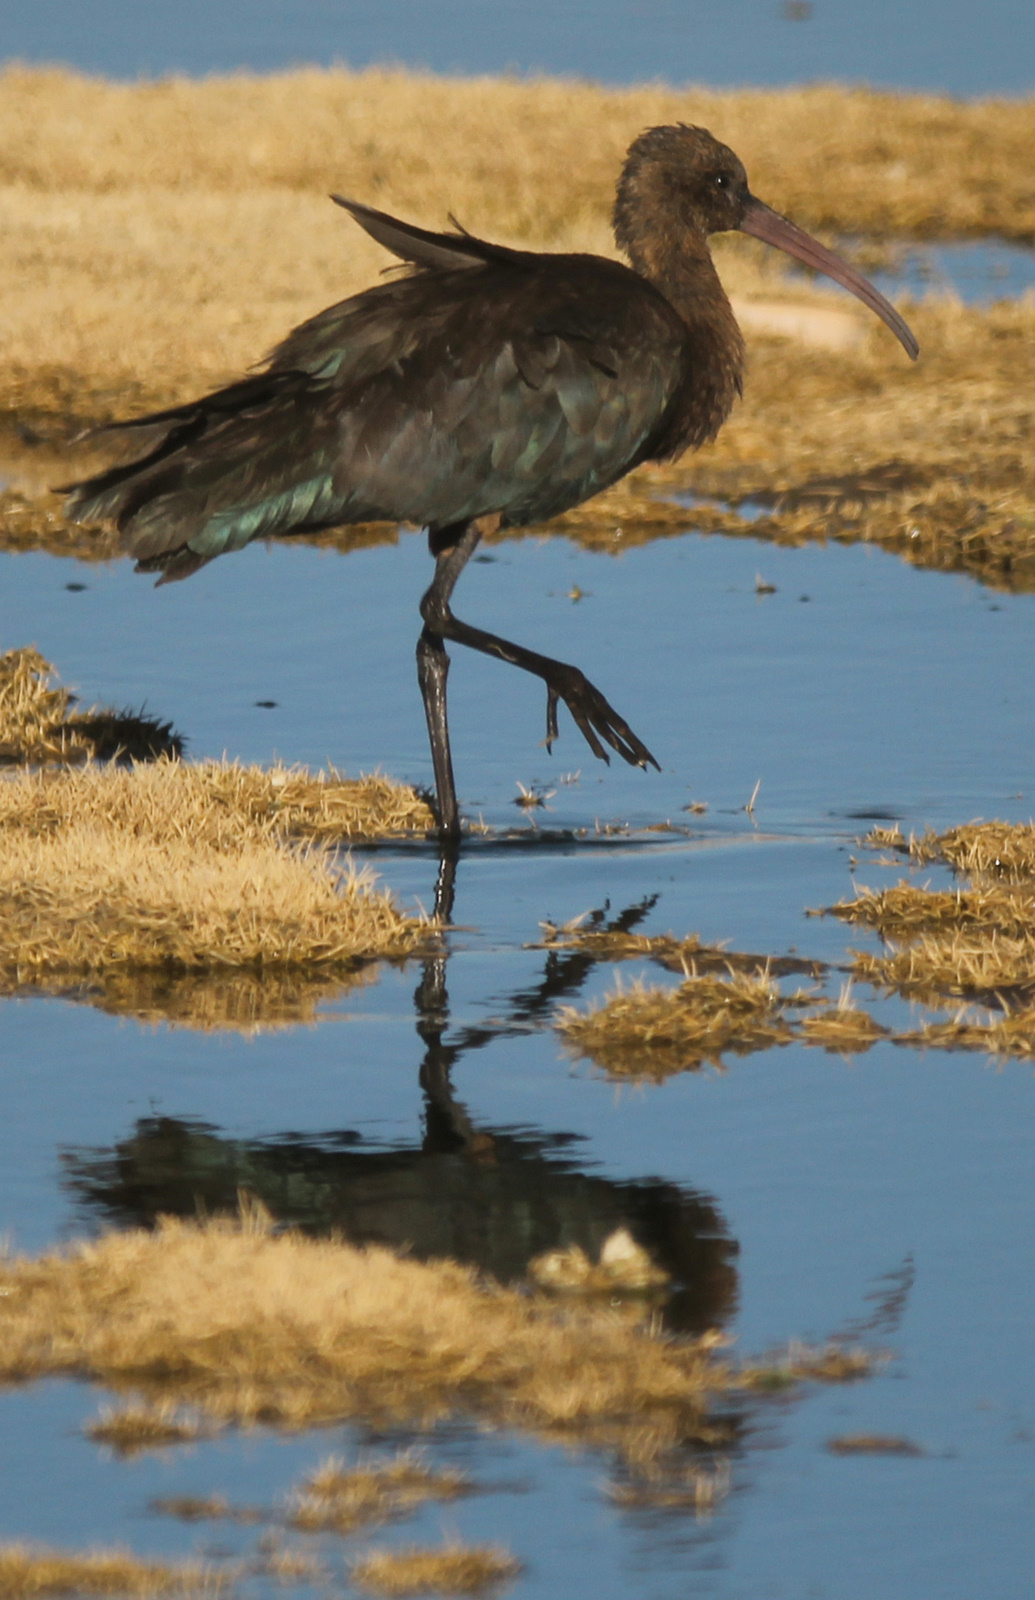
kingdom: Animalia
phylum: Chordata
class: Aves
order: Pelecaniformes
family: Threskiornithidae
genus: Plegadis
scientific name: Plegadis ridgwayi
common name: Puna ibis
